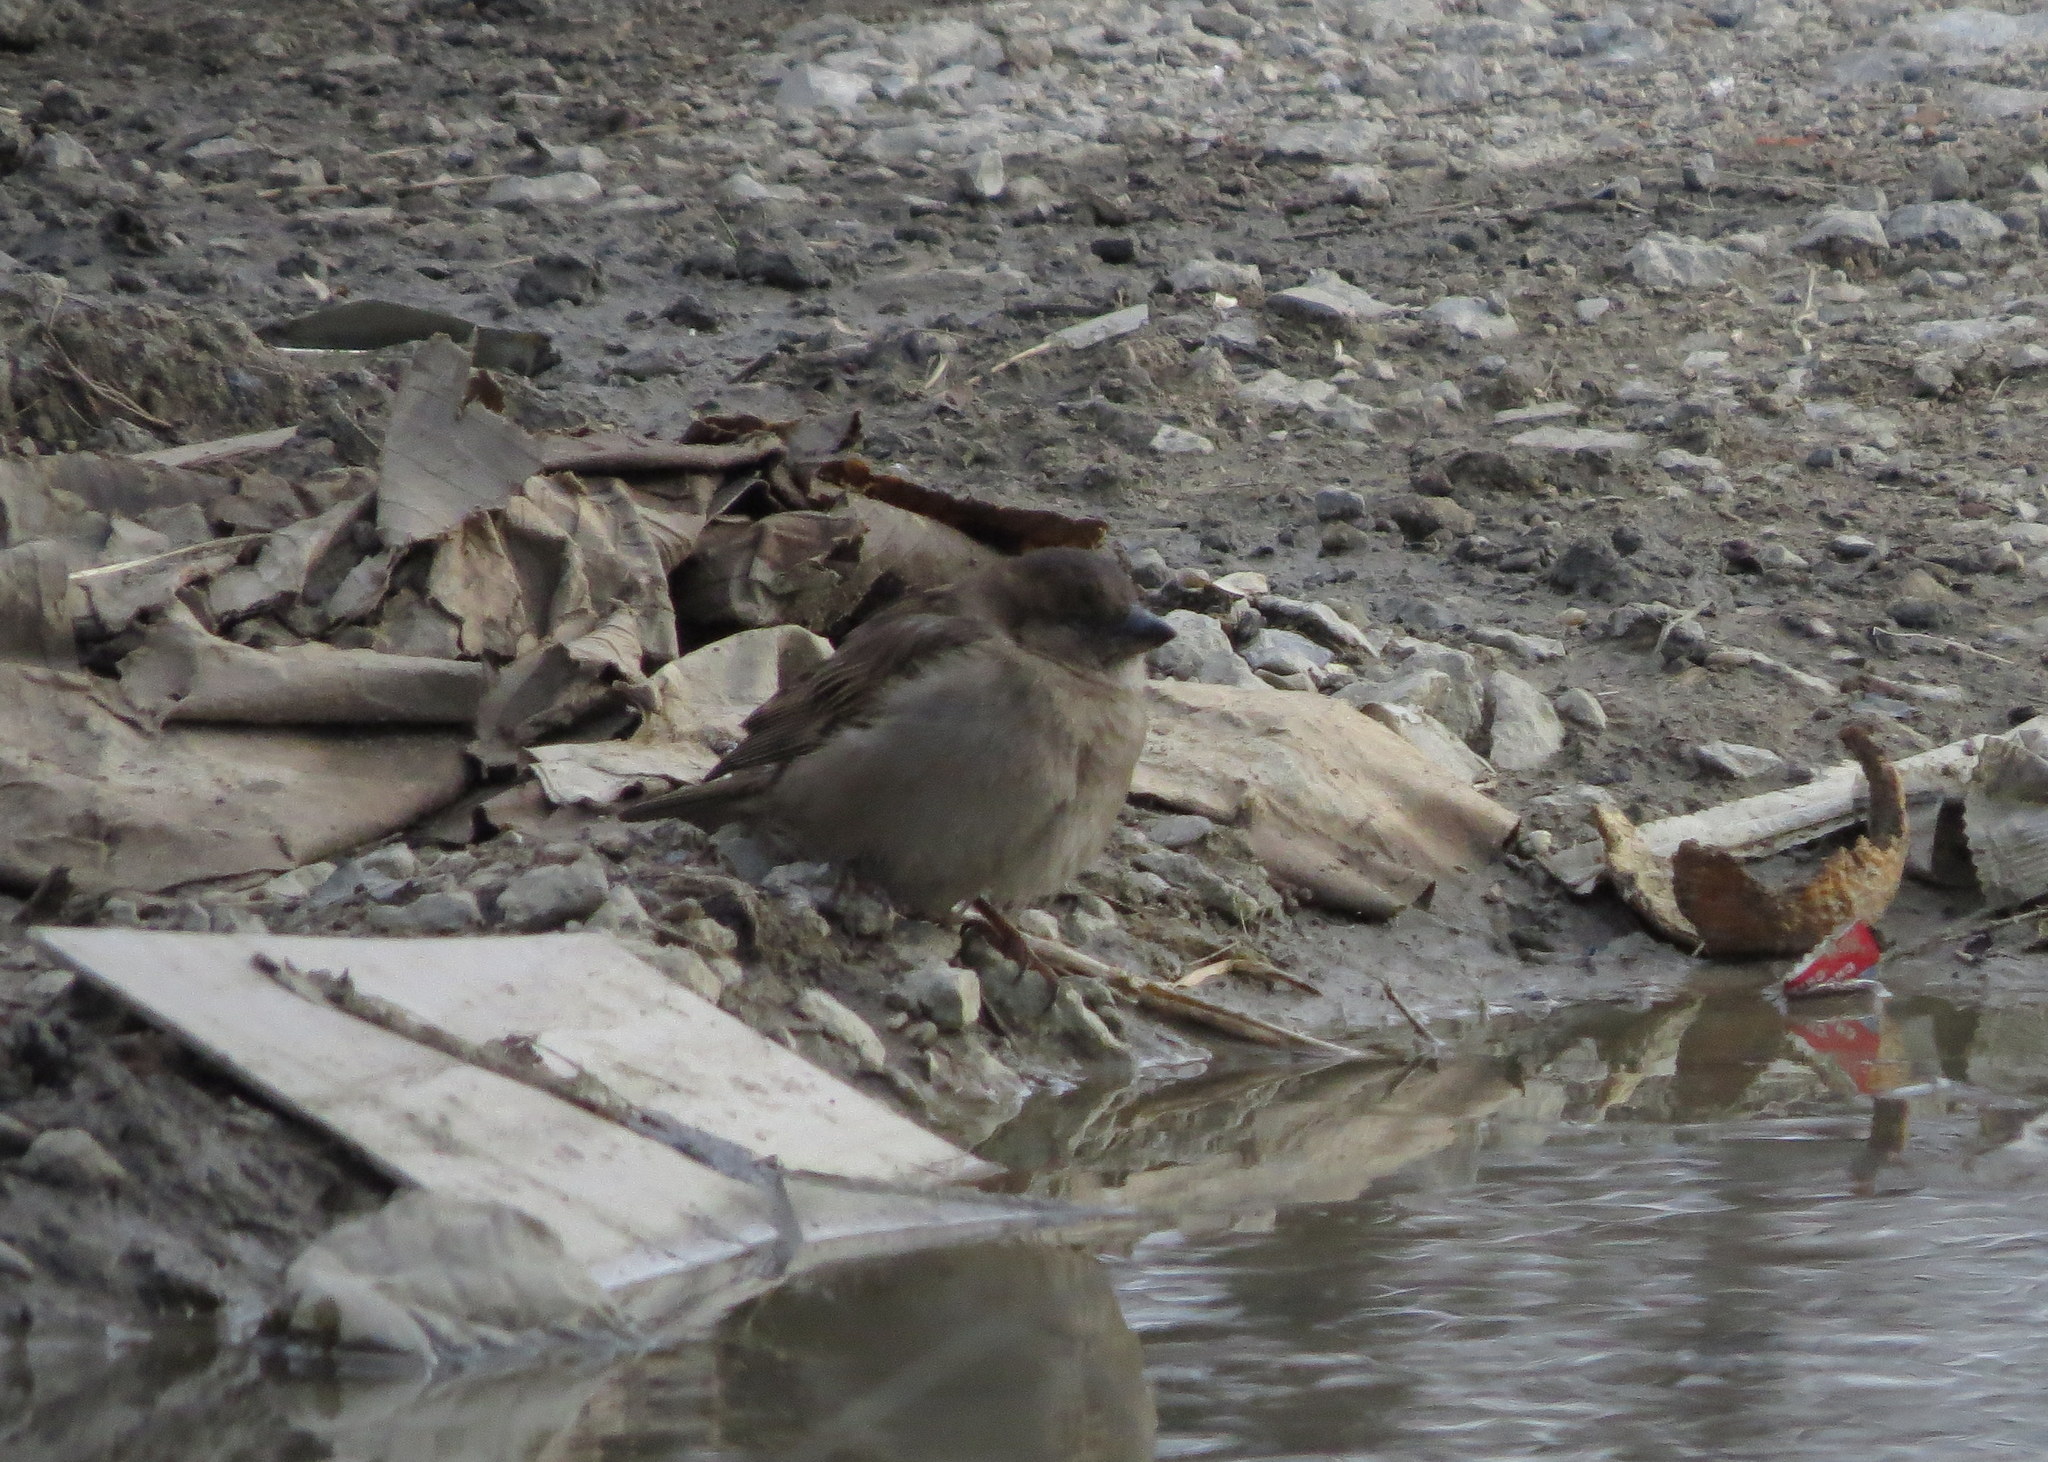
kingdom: Animalia
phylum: Chordata
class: Aves
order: Passeriformes
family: Passeridae
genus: Passer
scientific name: Passer domesticus
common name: House sparrow
